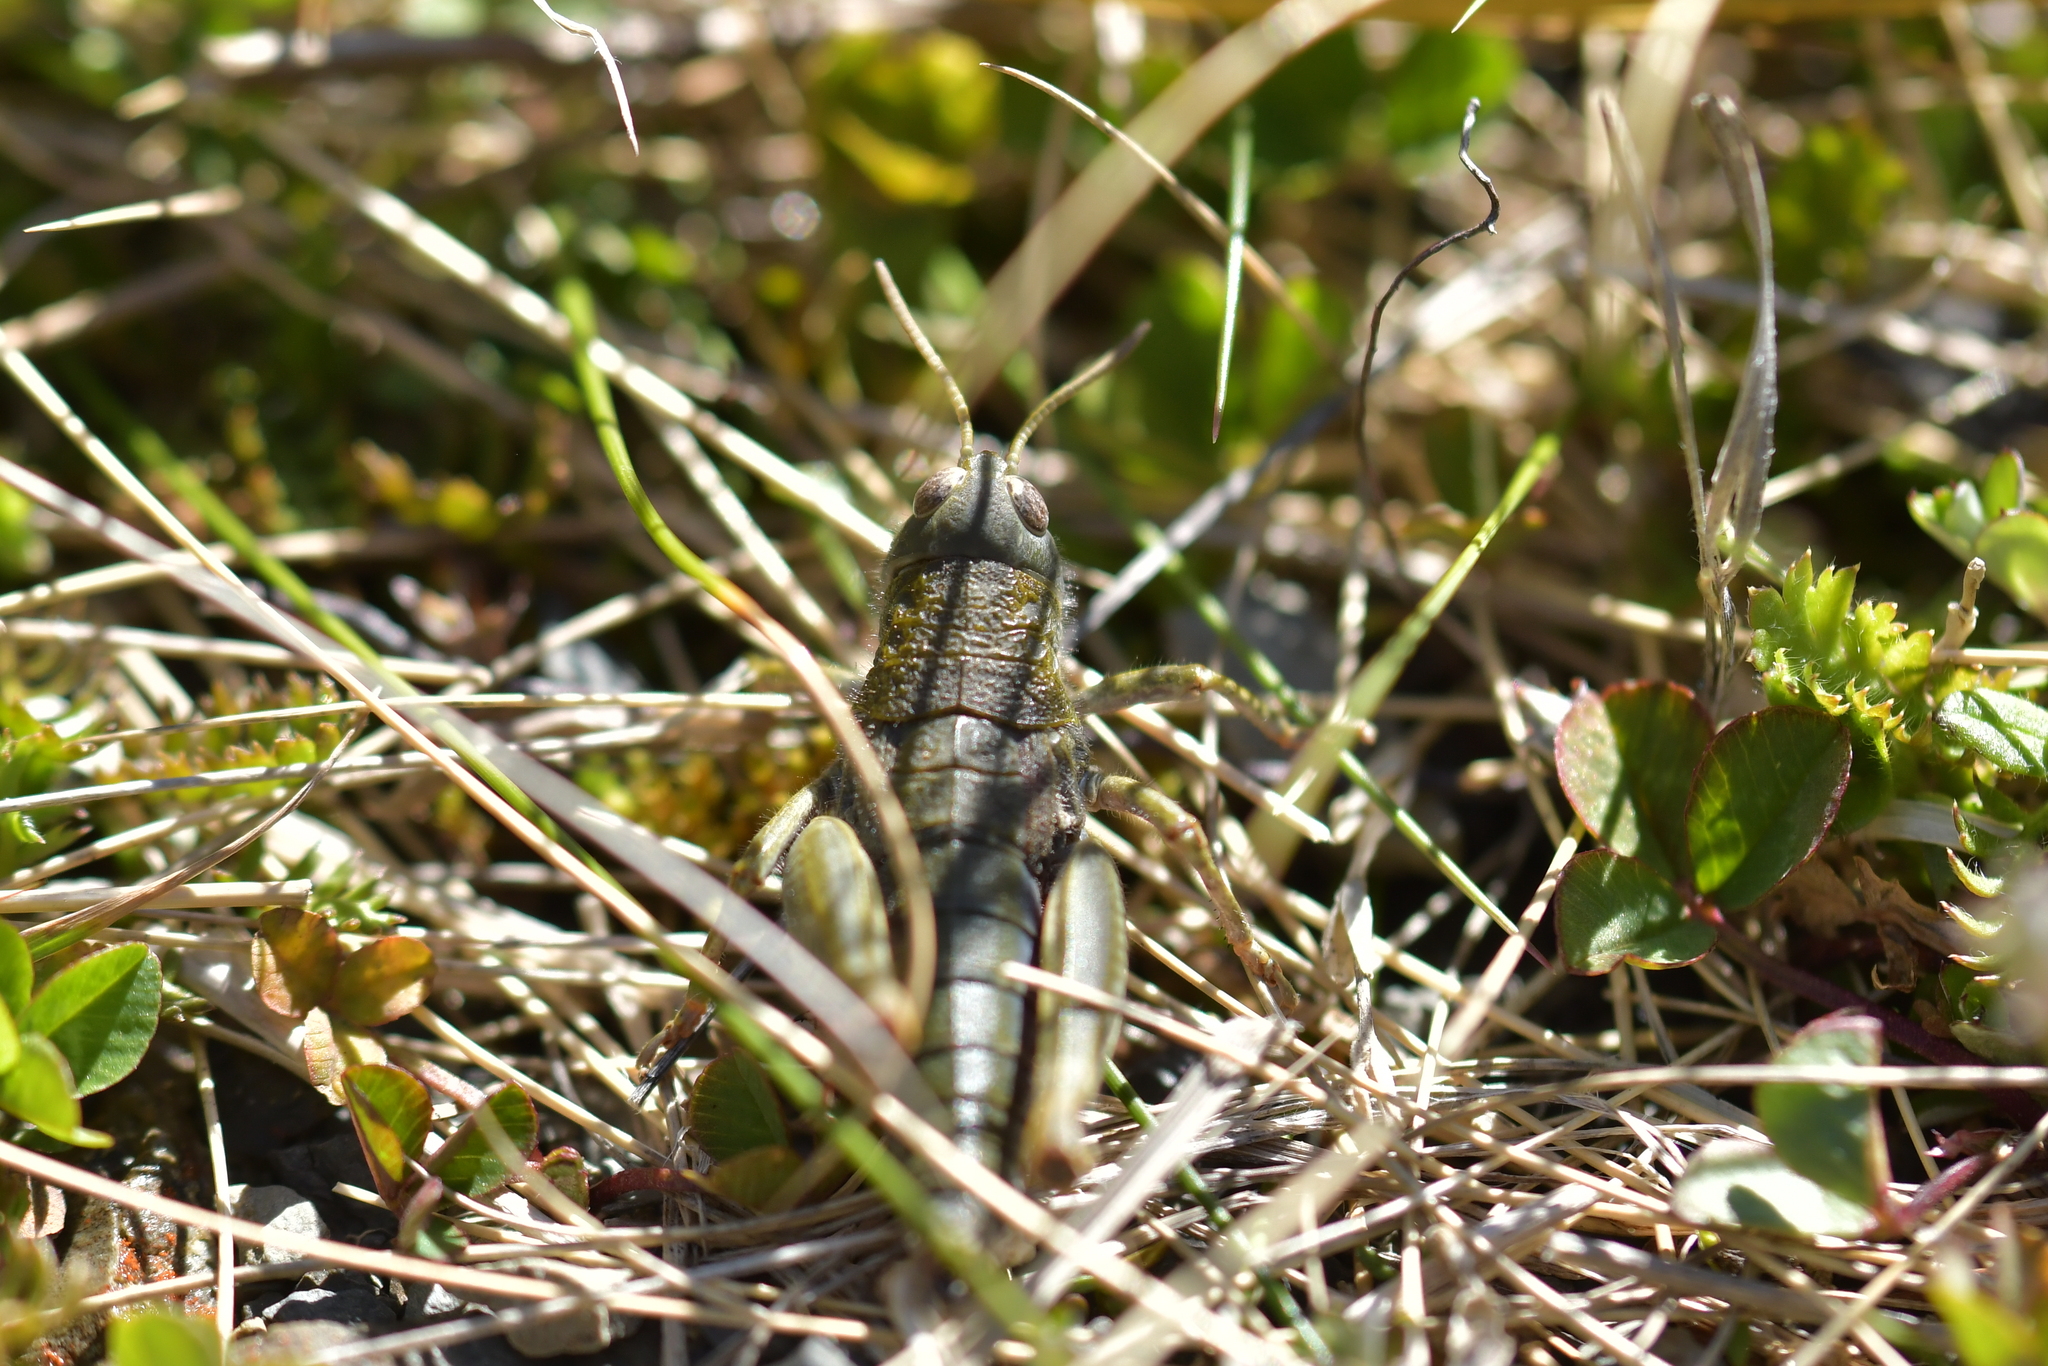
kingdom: Animalia
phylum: Arthropoda
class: Insecta
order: Orthoptera
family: Acrididae
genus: Sigaus
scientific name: Sigaus
